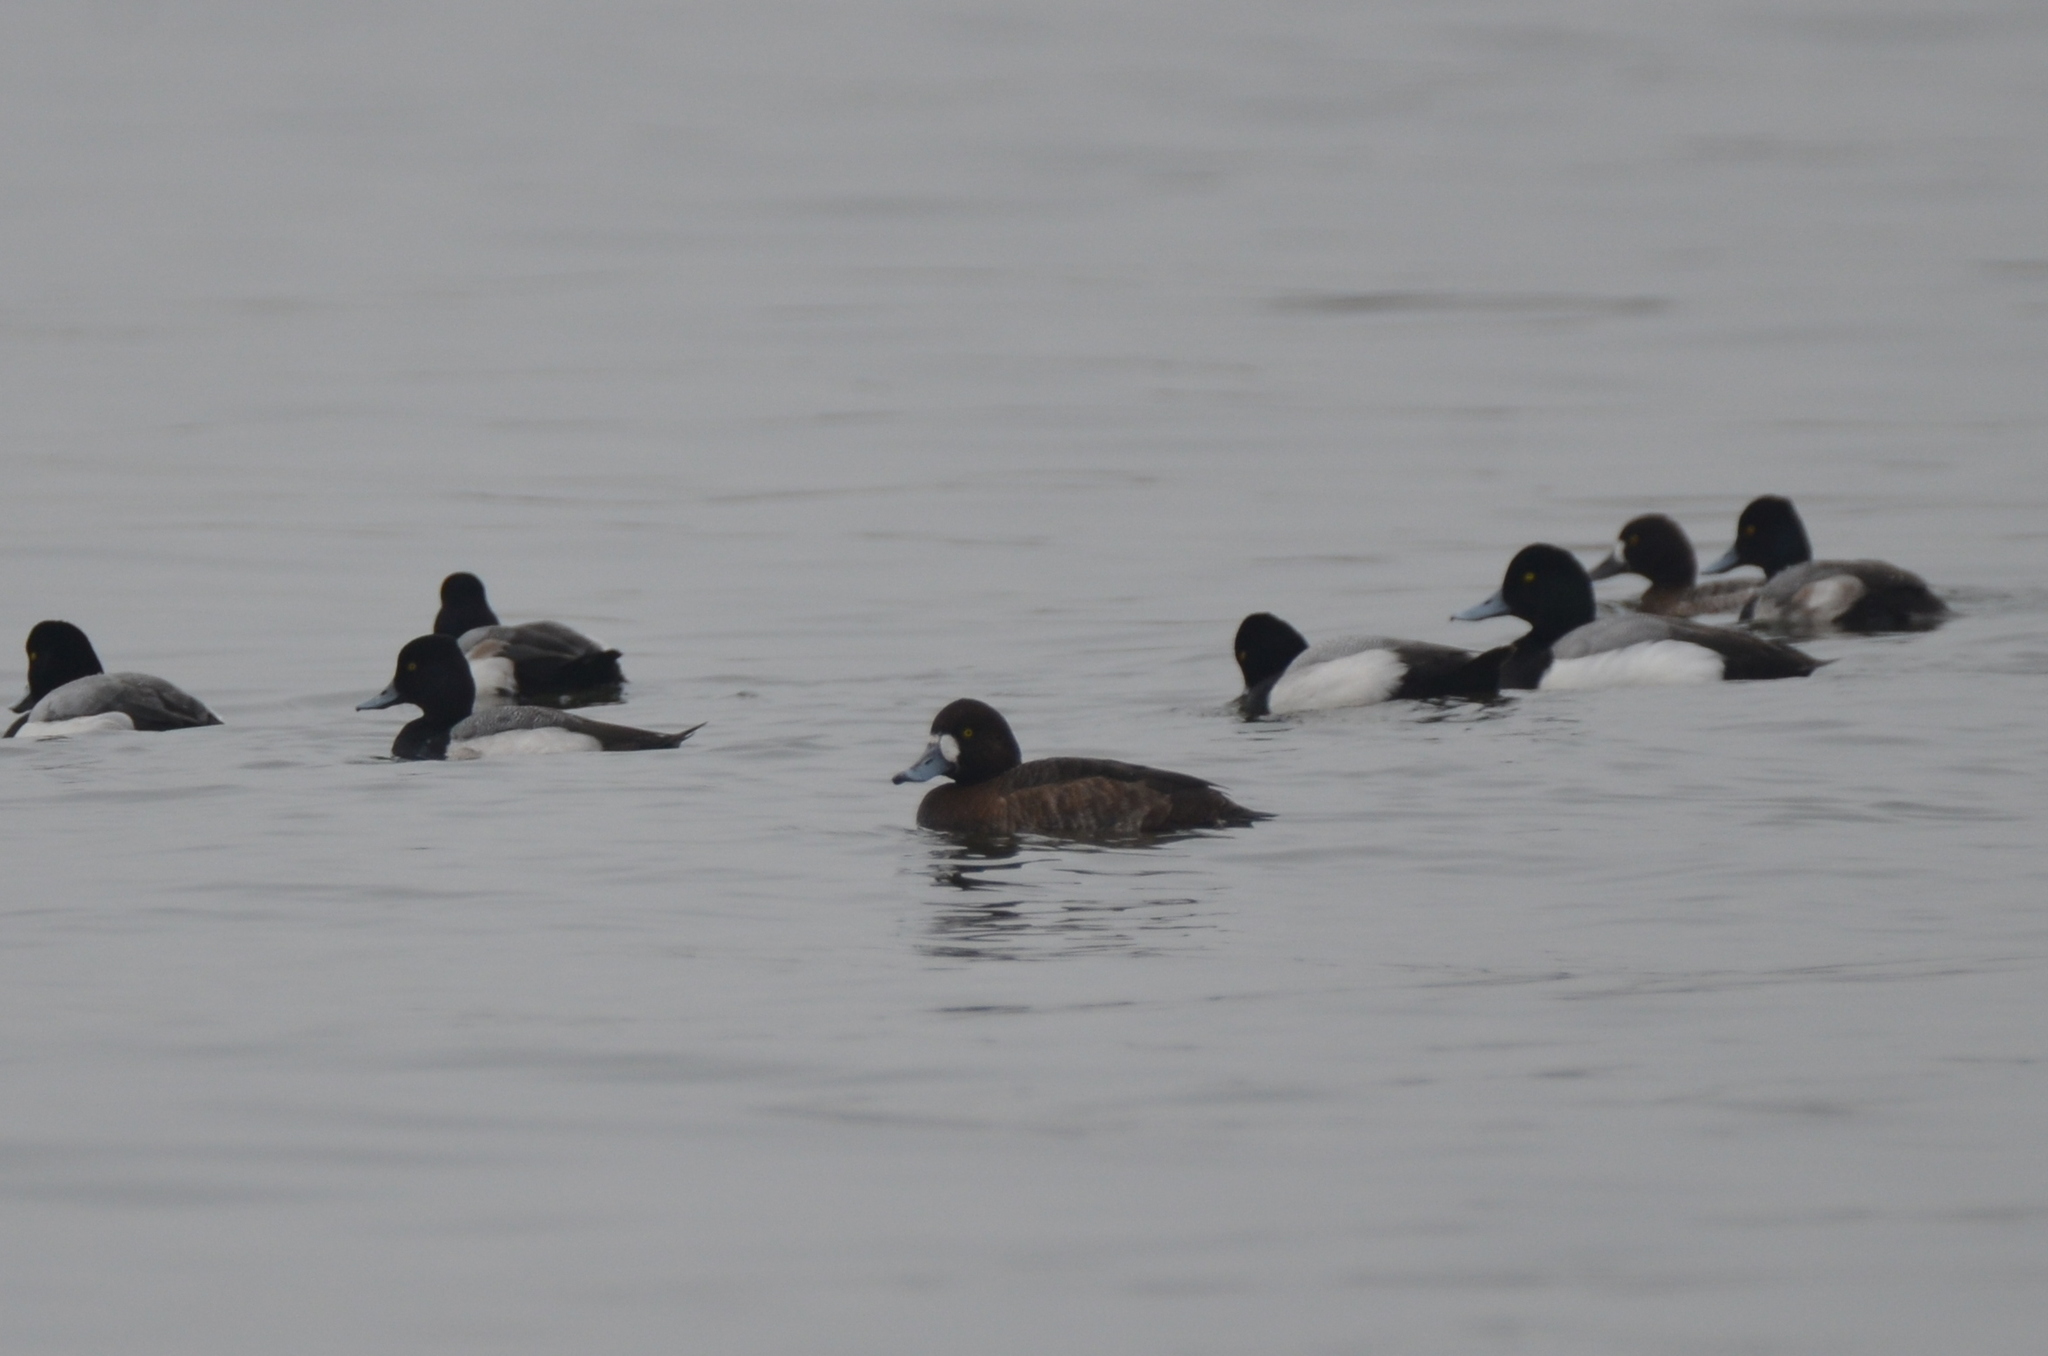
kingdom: Animalia
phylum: Chordata
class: Aves
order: Anseriformes
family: Anatidae
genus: Aythya
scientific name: Aythya marila
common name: Greater scaup
